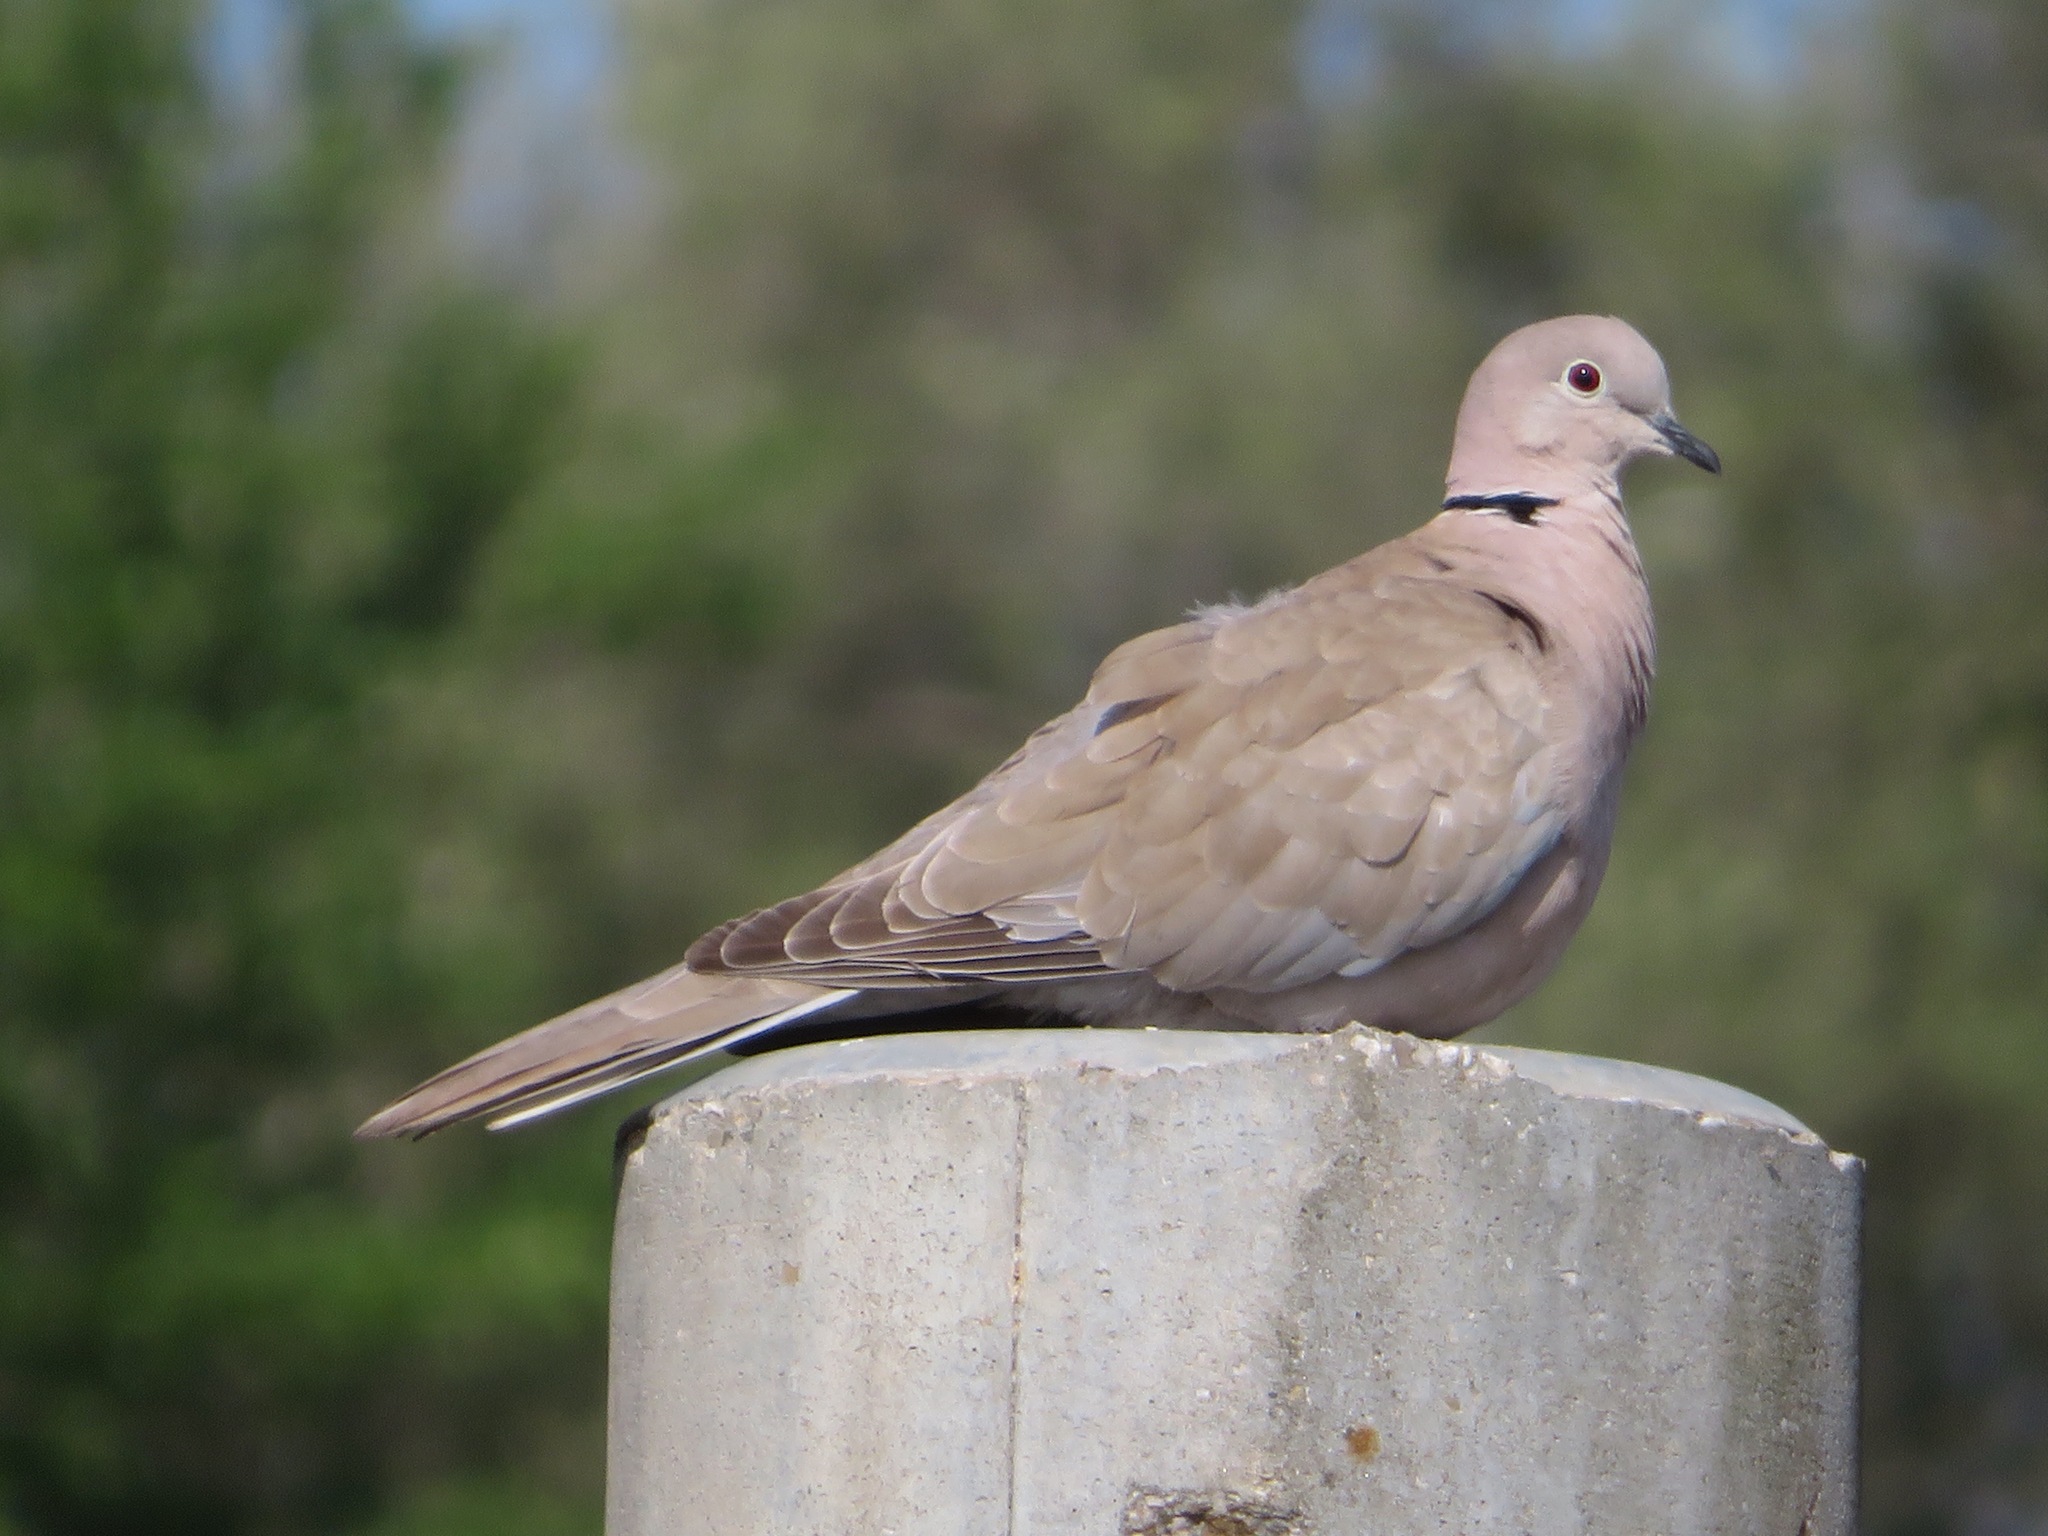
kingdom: Animalia
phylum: Chordata
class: Aves
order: Columbiformes
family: Columbidae
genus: Streptopelia
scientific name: Streptopelia decaocto
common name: Eurasian collared dove
